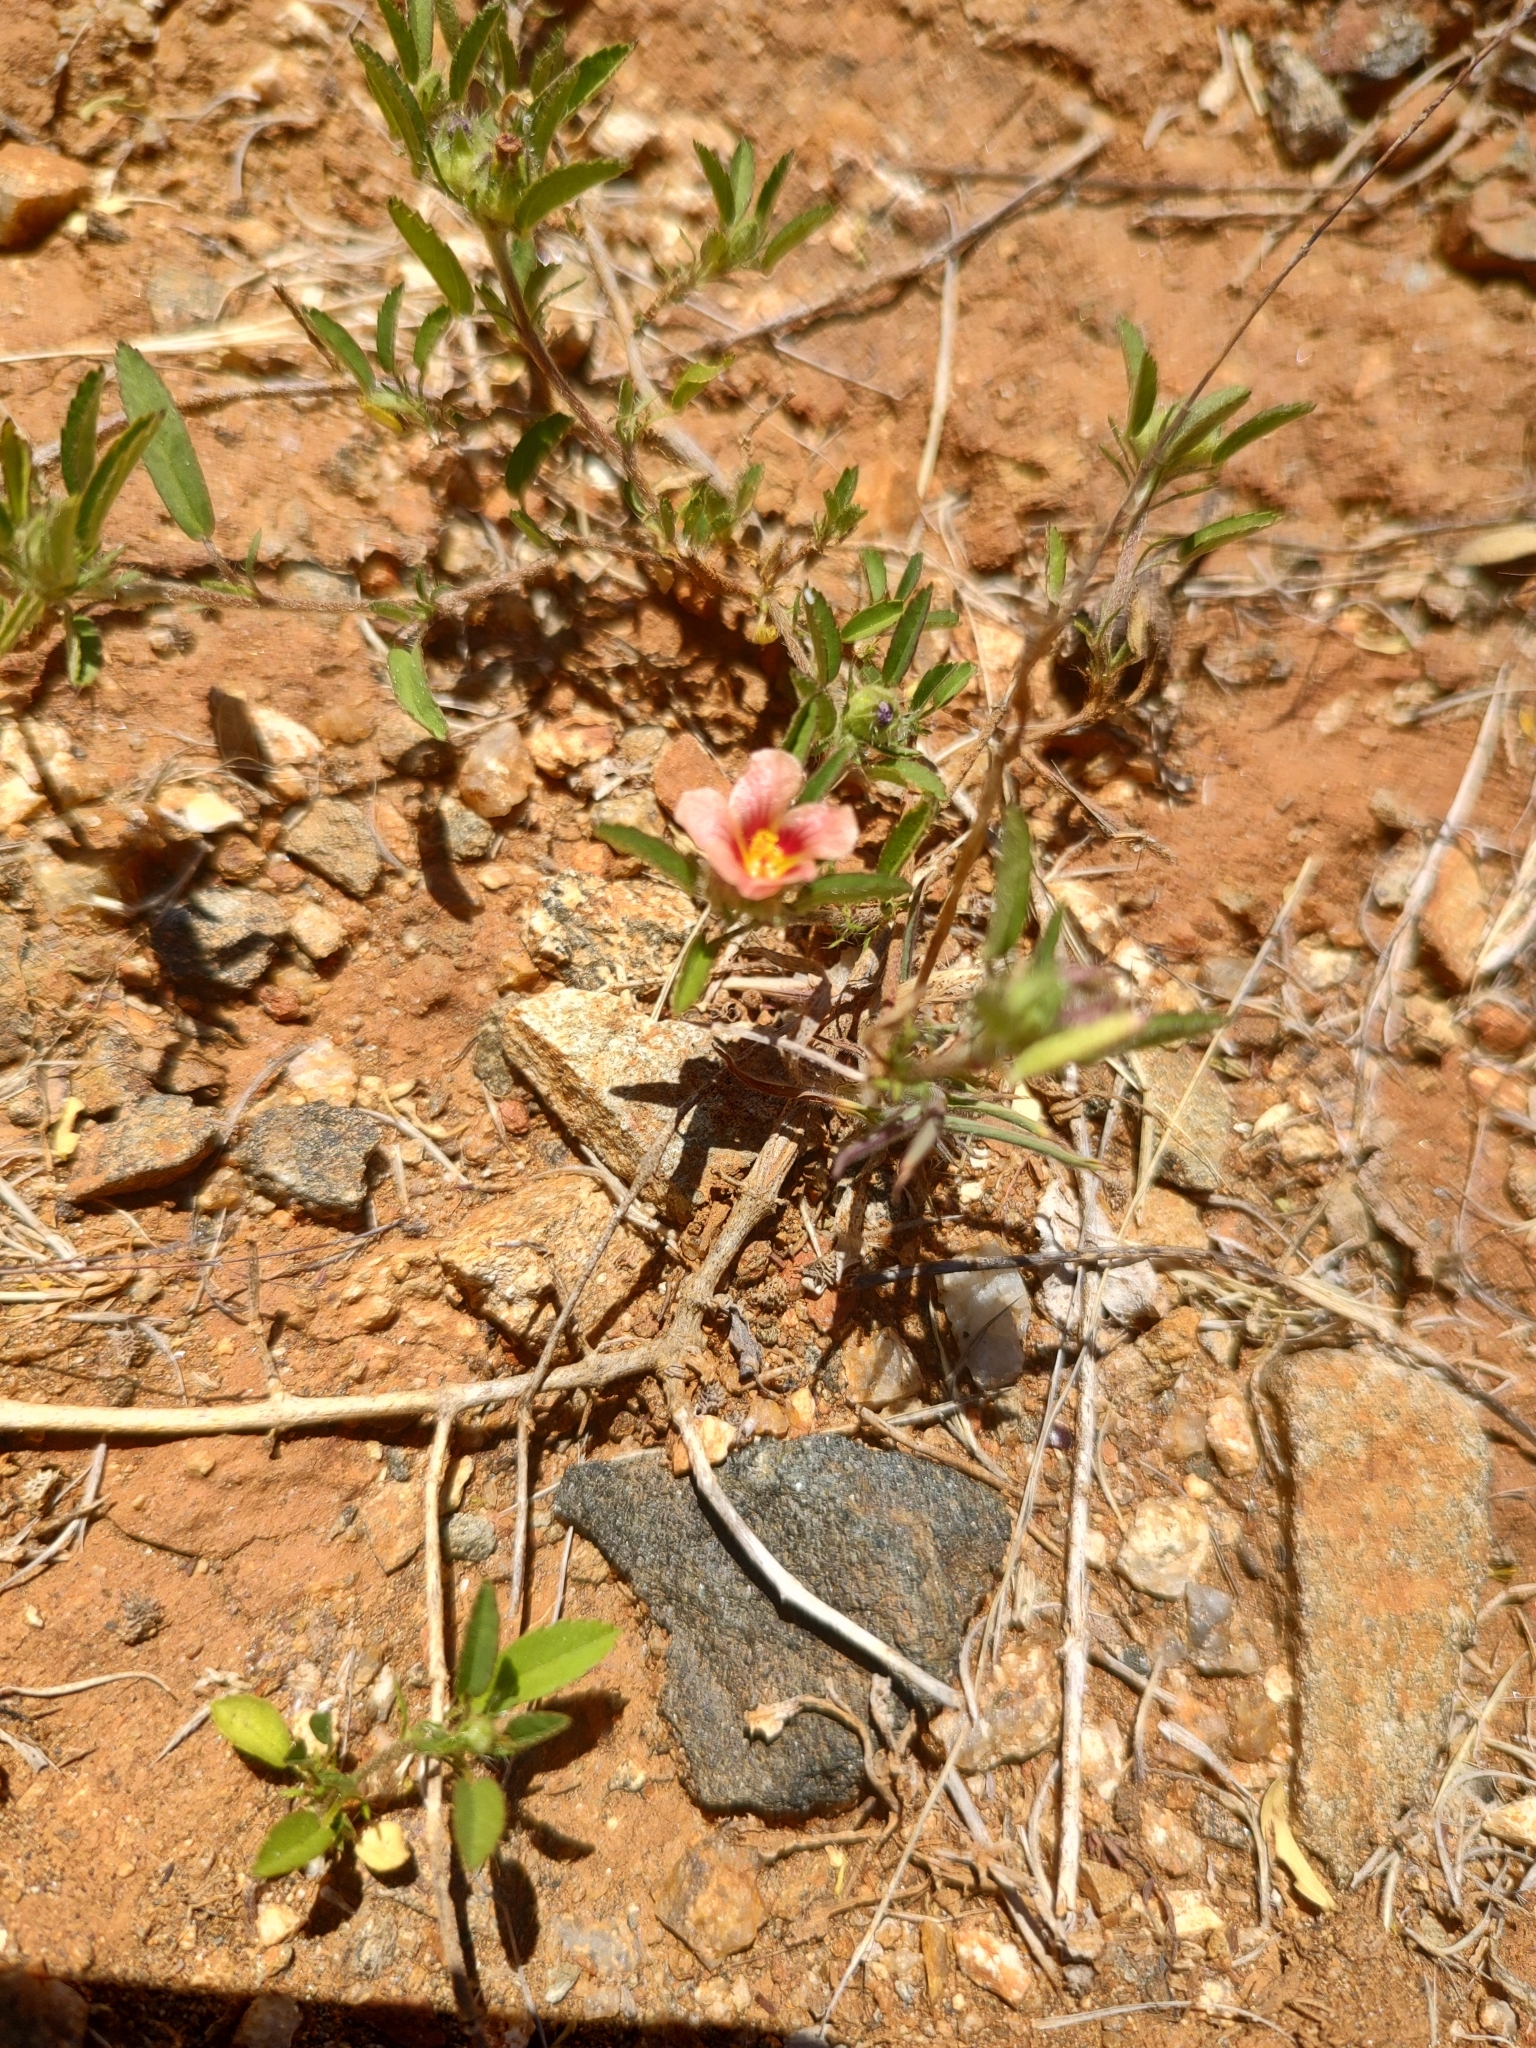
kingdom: Plantae
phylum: Tracheophyta
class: Magnoliopsida
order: Malvales
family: Malvaceae
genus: Sida
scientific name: Sida ciliaris
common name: Bracted fanpetals
